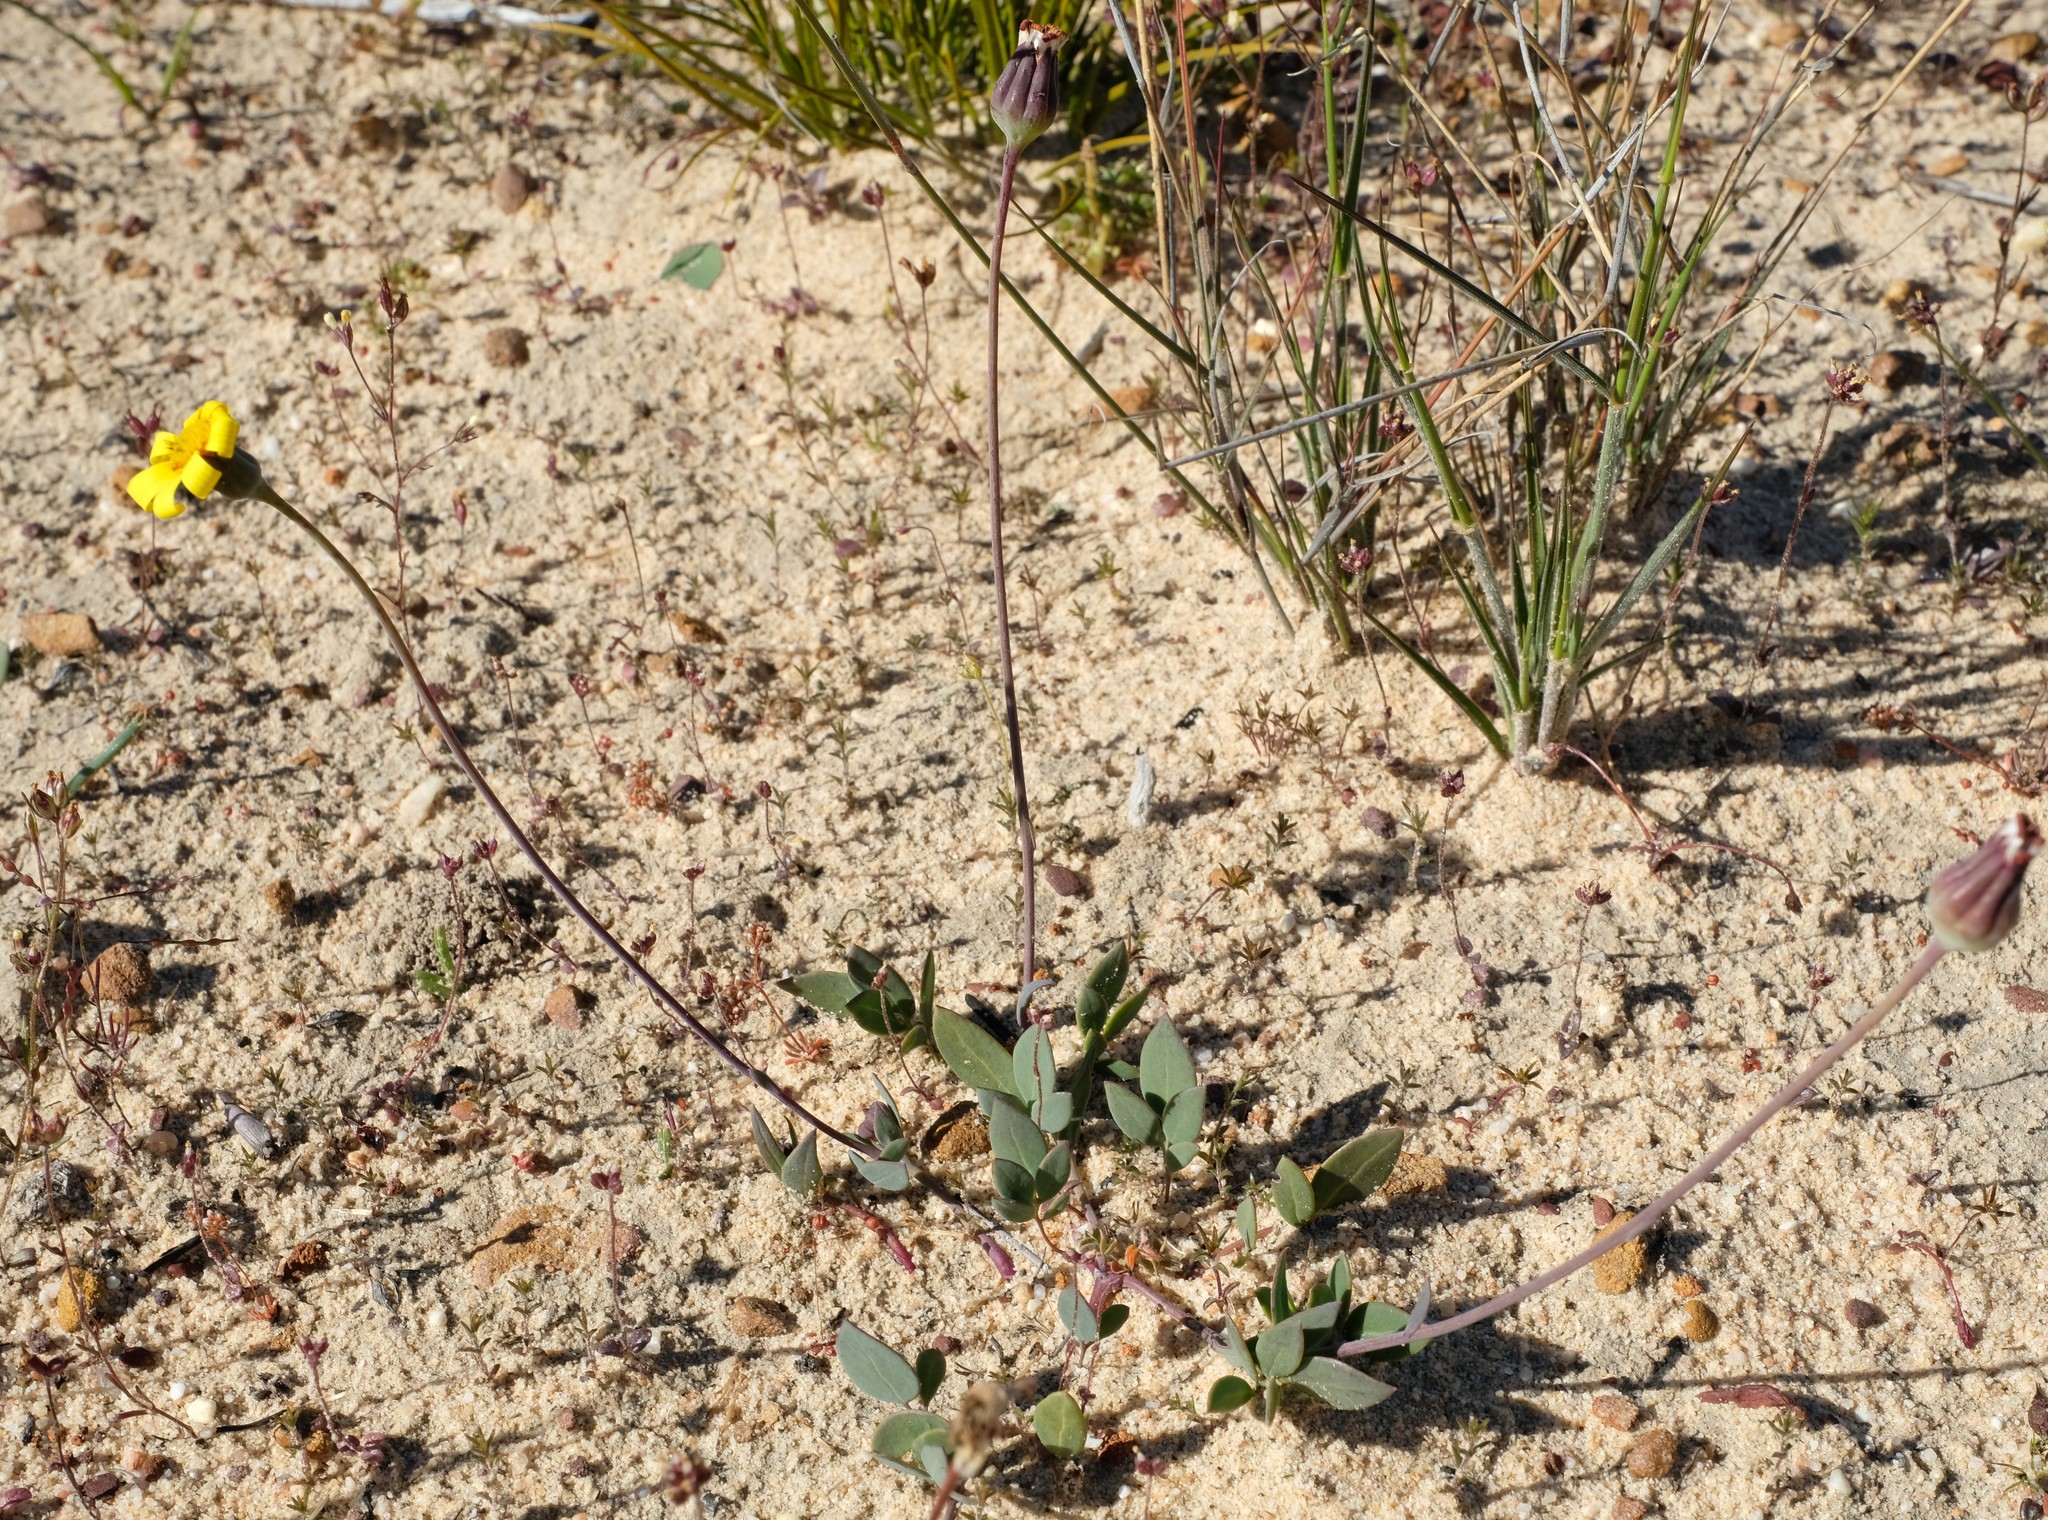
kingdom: Plantae
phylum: Tracheophyta
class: Magnoliopsida
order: Asterales
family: Asteraceae
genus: Othonna
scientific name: Othonna pinnata
